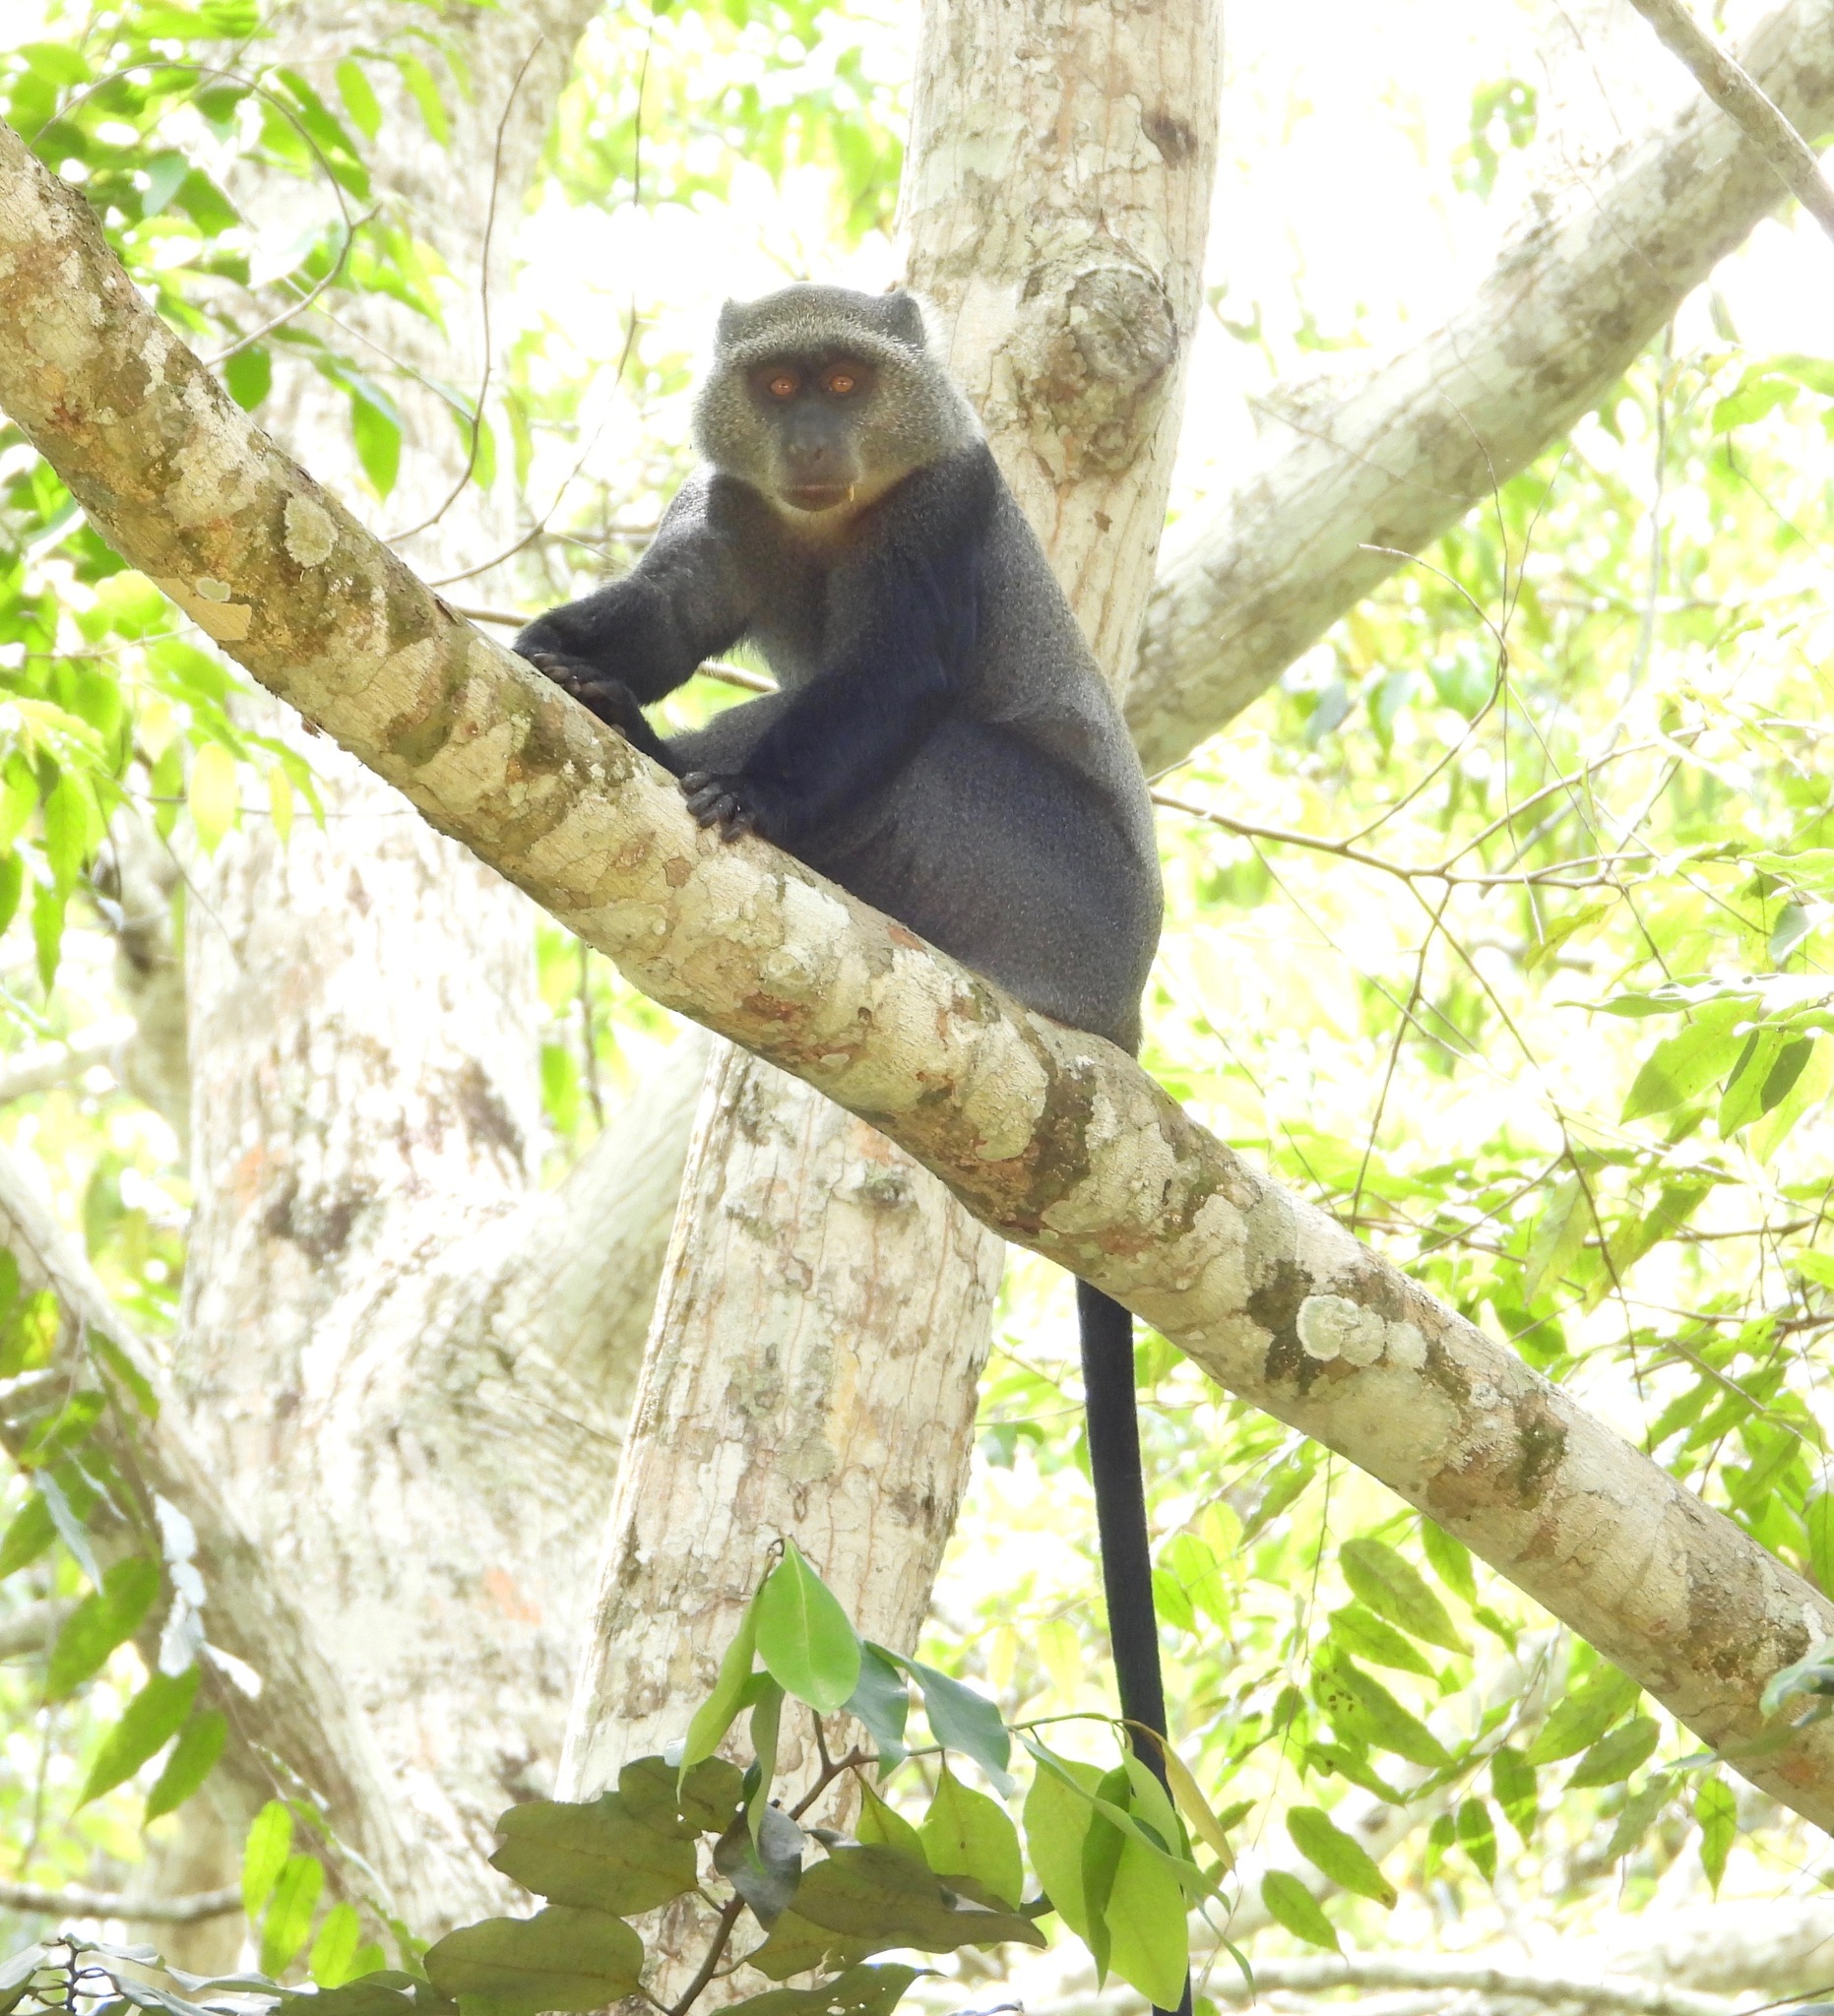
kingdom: Animalia
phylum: Chordata
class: Mammalia
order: Primates
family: Cercopithecidae
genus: Cercopithecus
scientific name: Cercopithecus mitis
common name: Blue monkey
